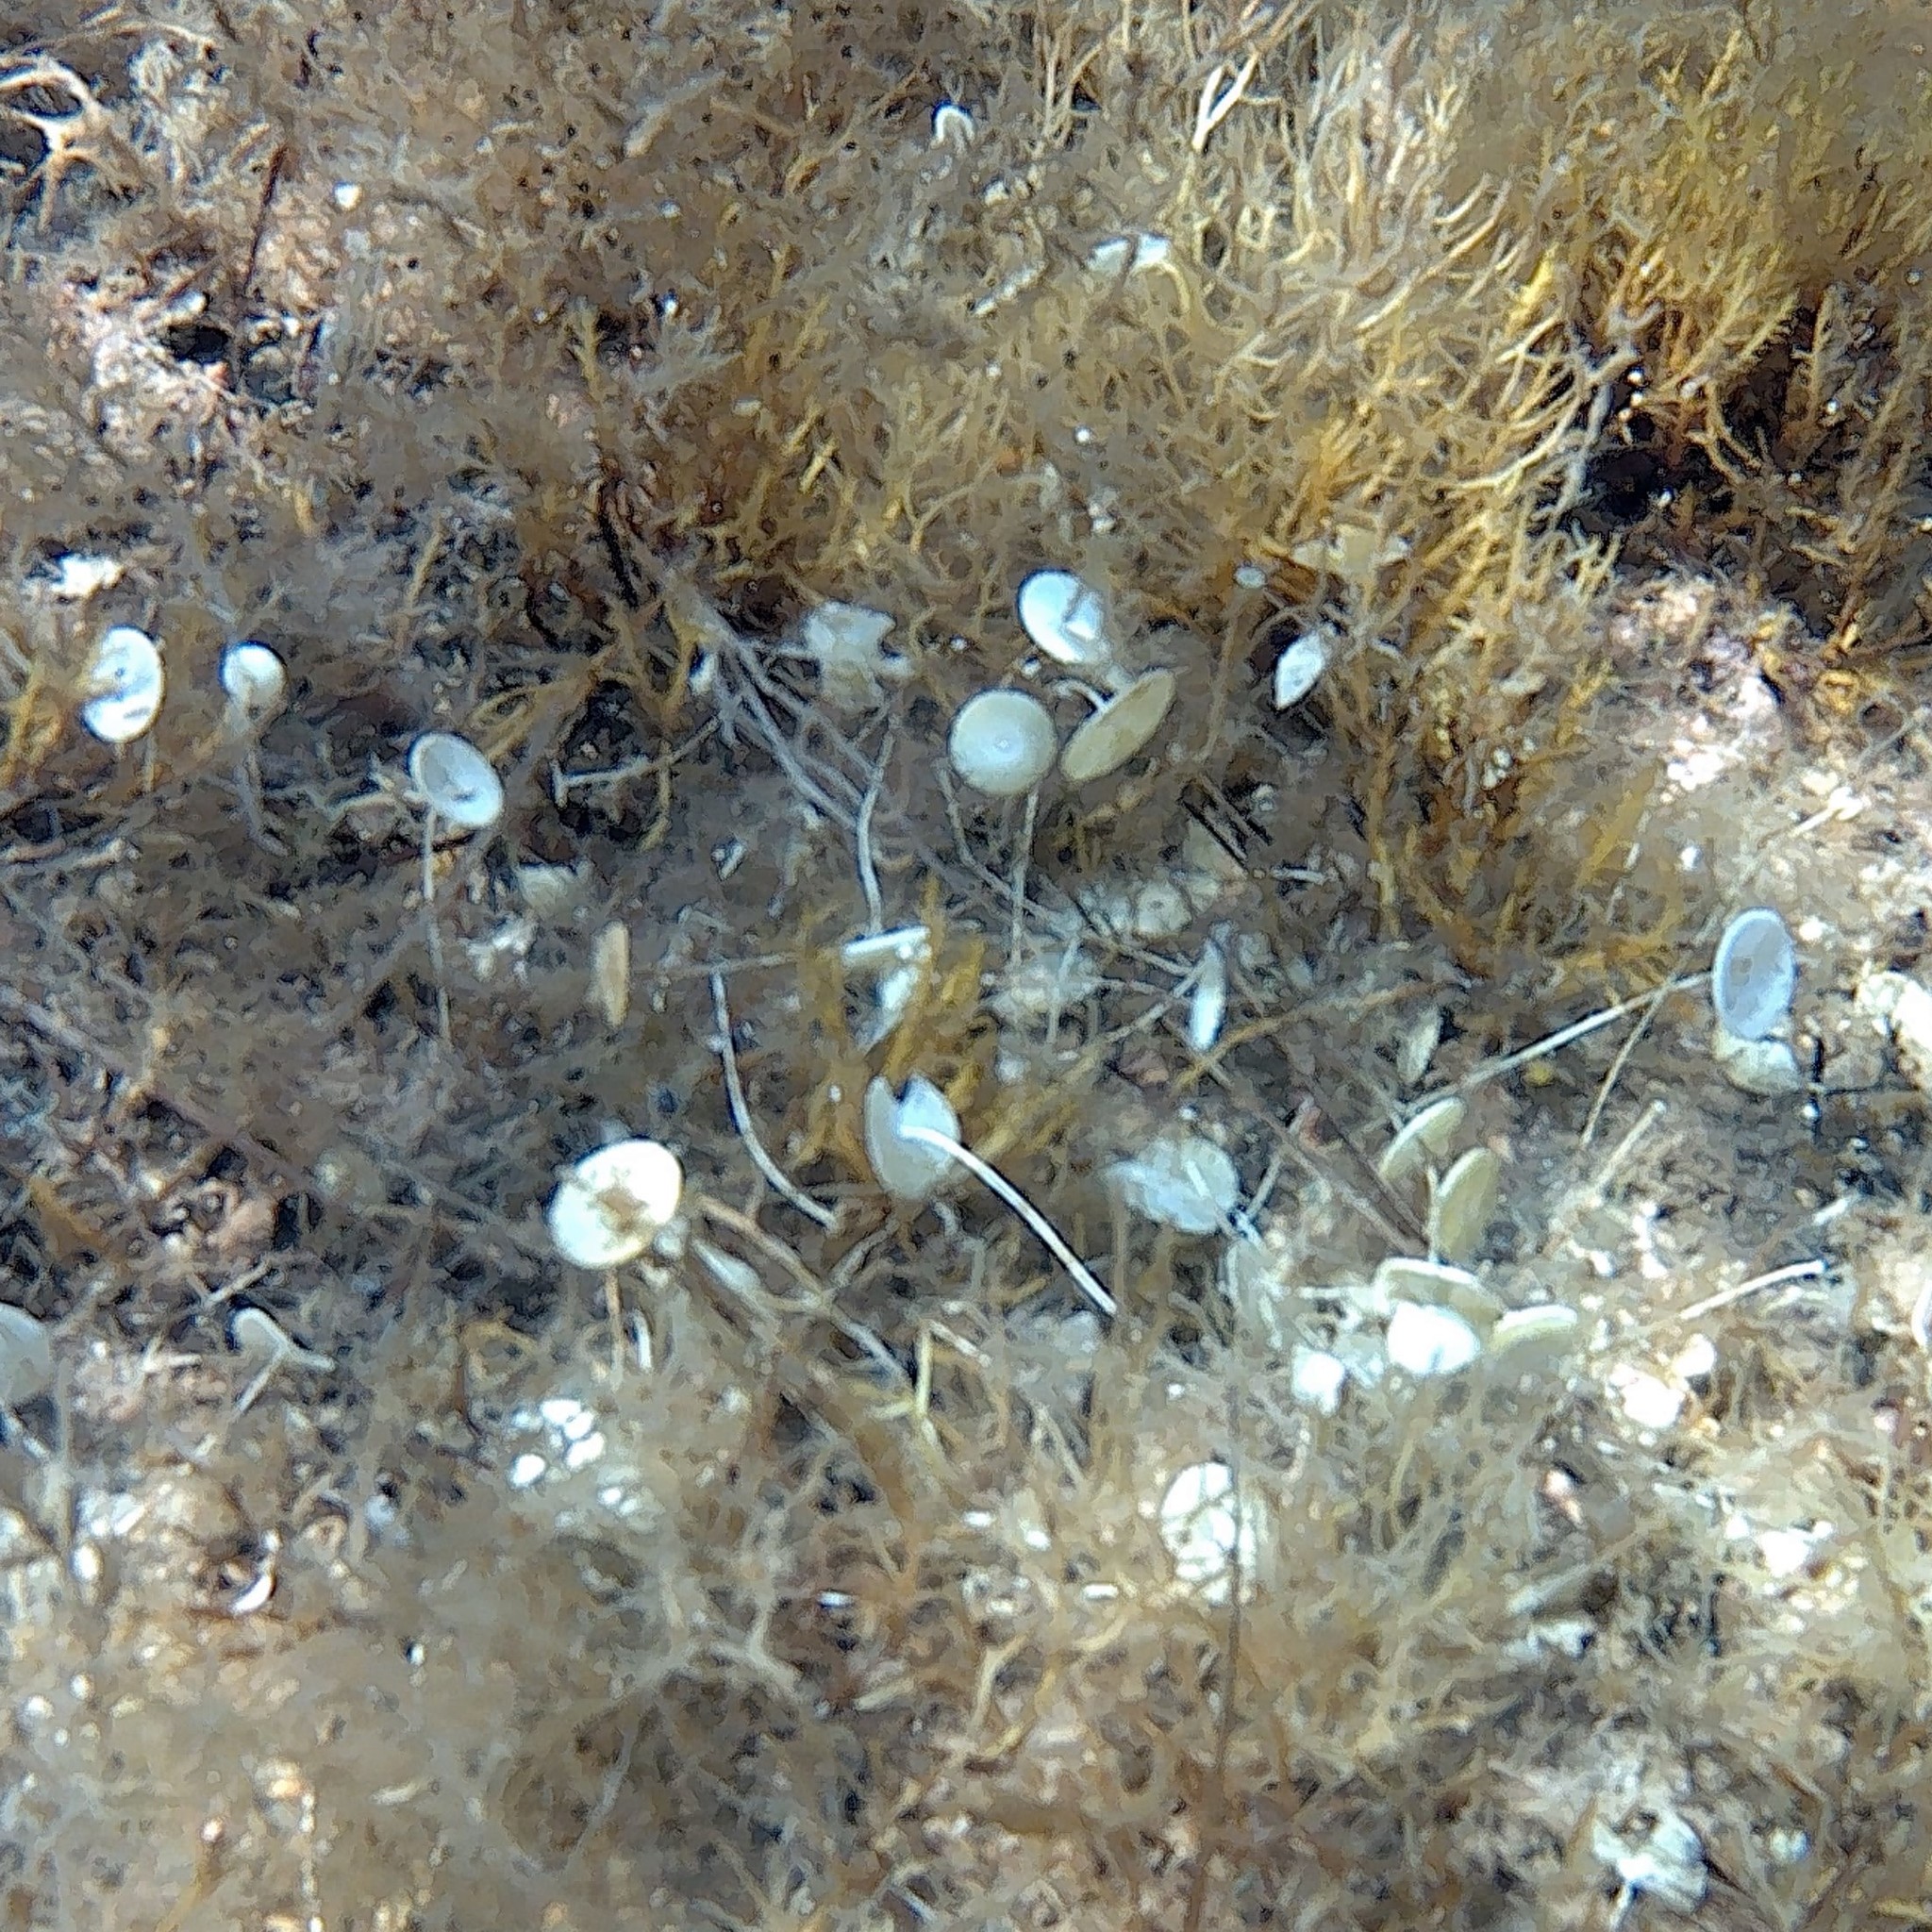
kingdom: Plantae
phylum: Chlorophyta
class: Ulvophyceae
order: Dasycladales
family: Polyphysaceae
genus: Acetabularia
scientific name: Acetabularia acetabulum
